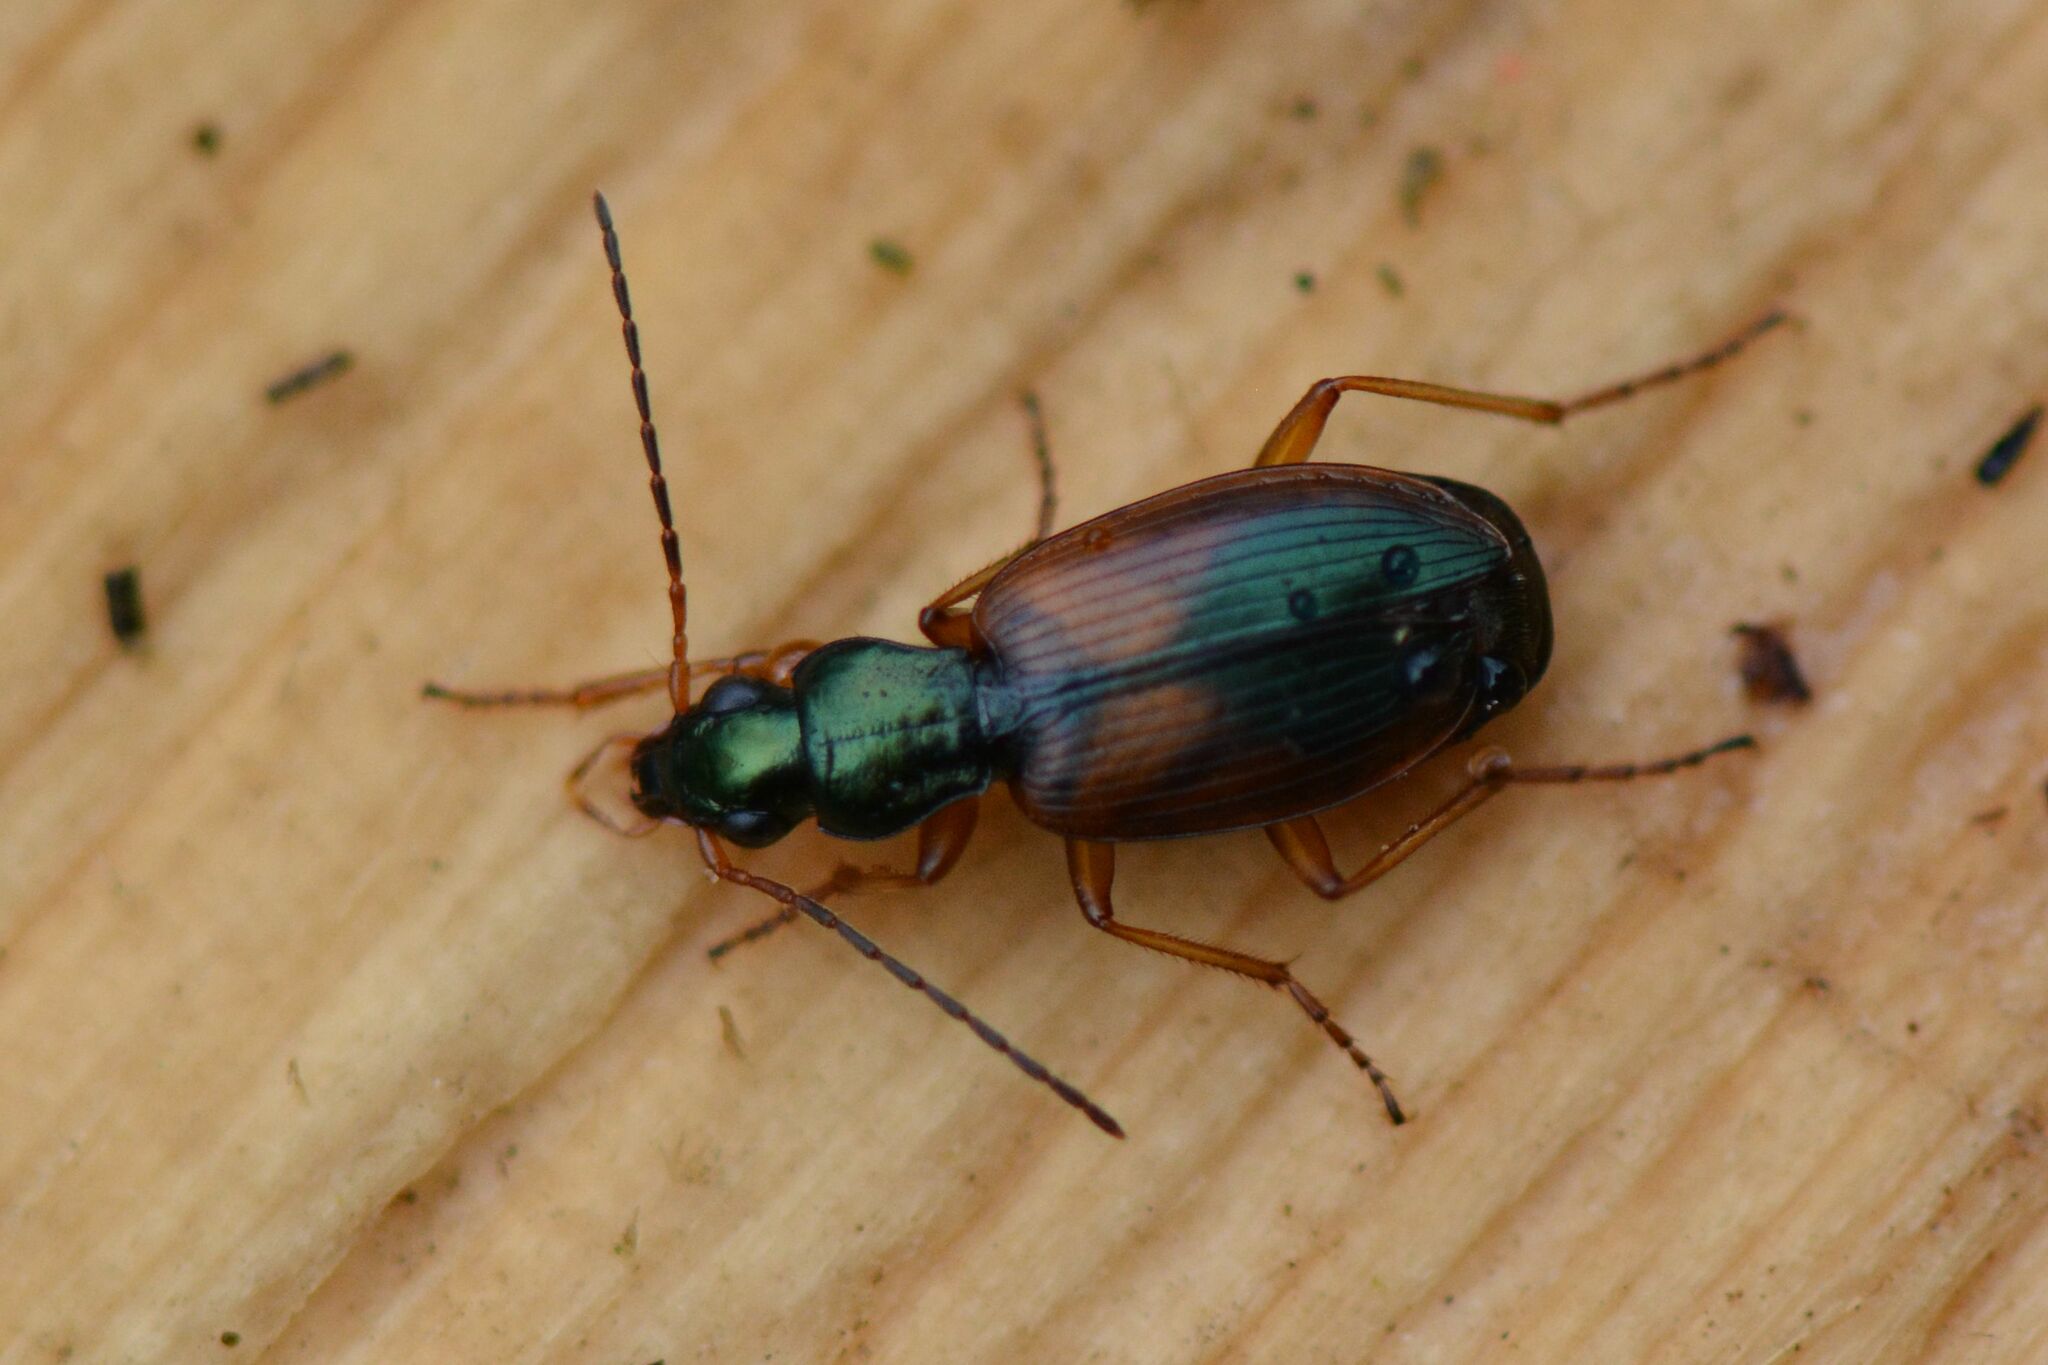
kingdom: Animalia
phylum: Arthropoda
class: Insecta
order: Coleoptera
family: Carabidae
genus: Anchomenus
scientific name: Anchomenus dorsalis
